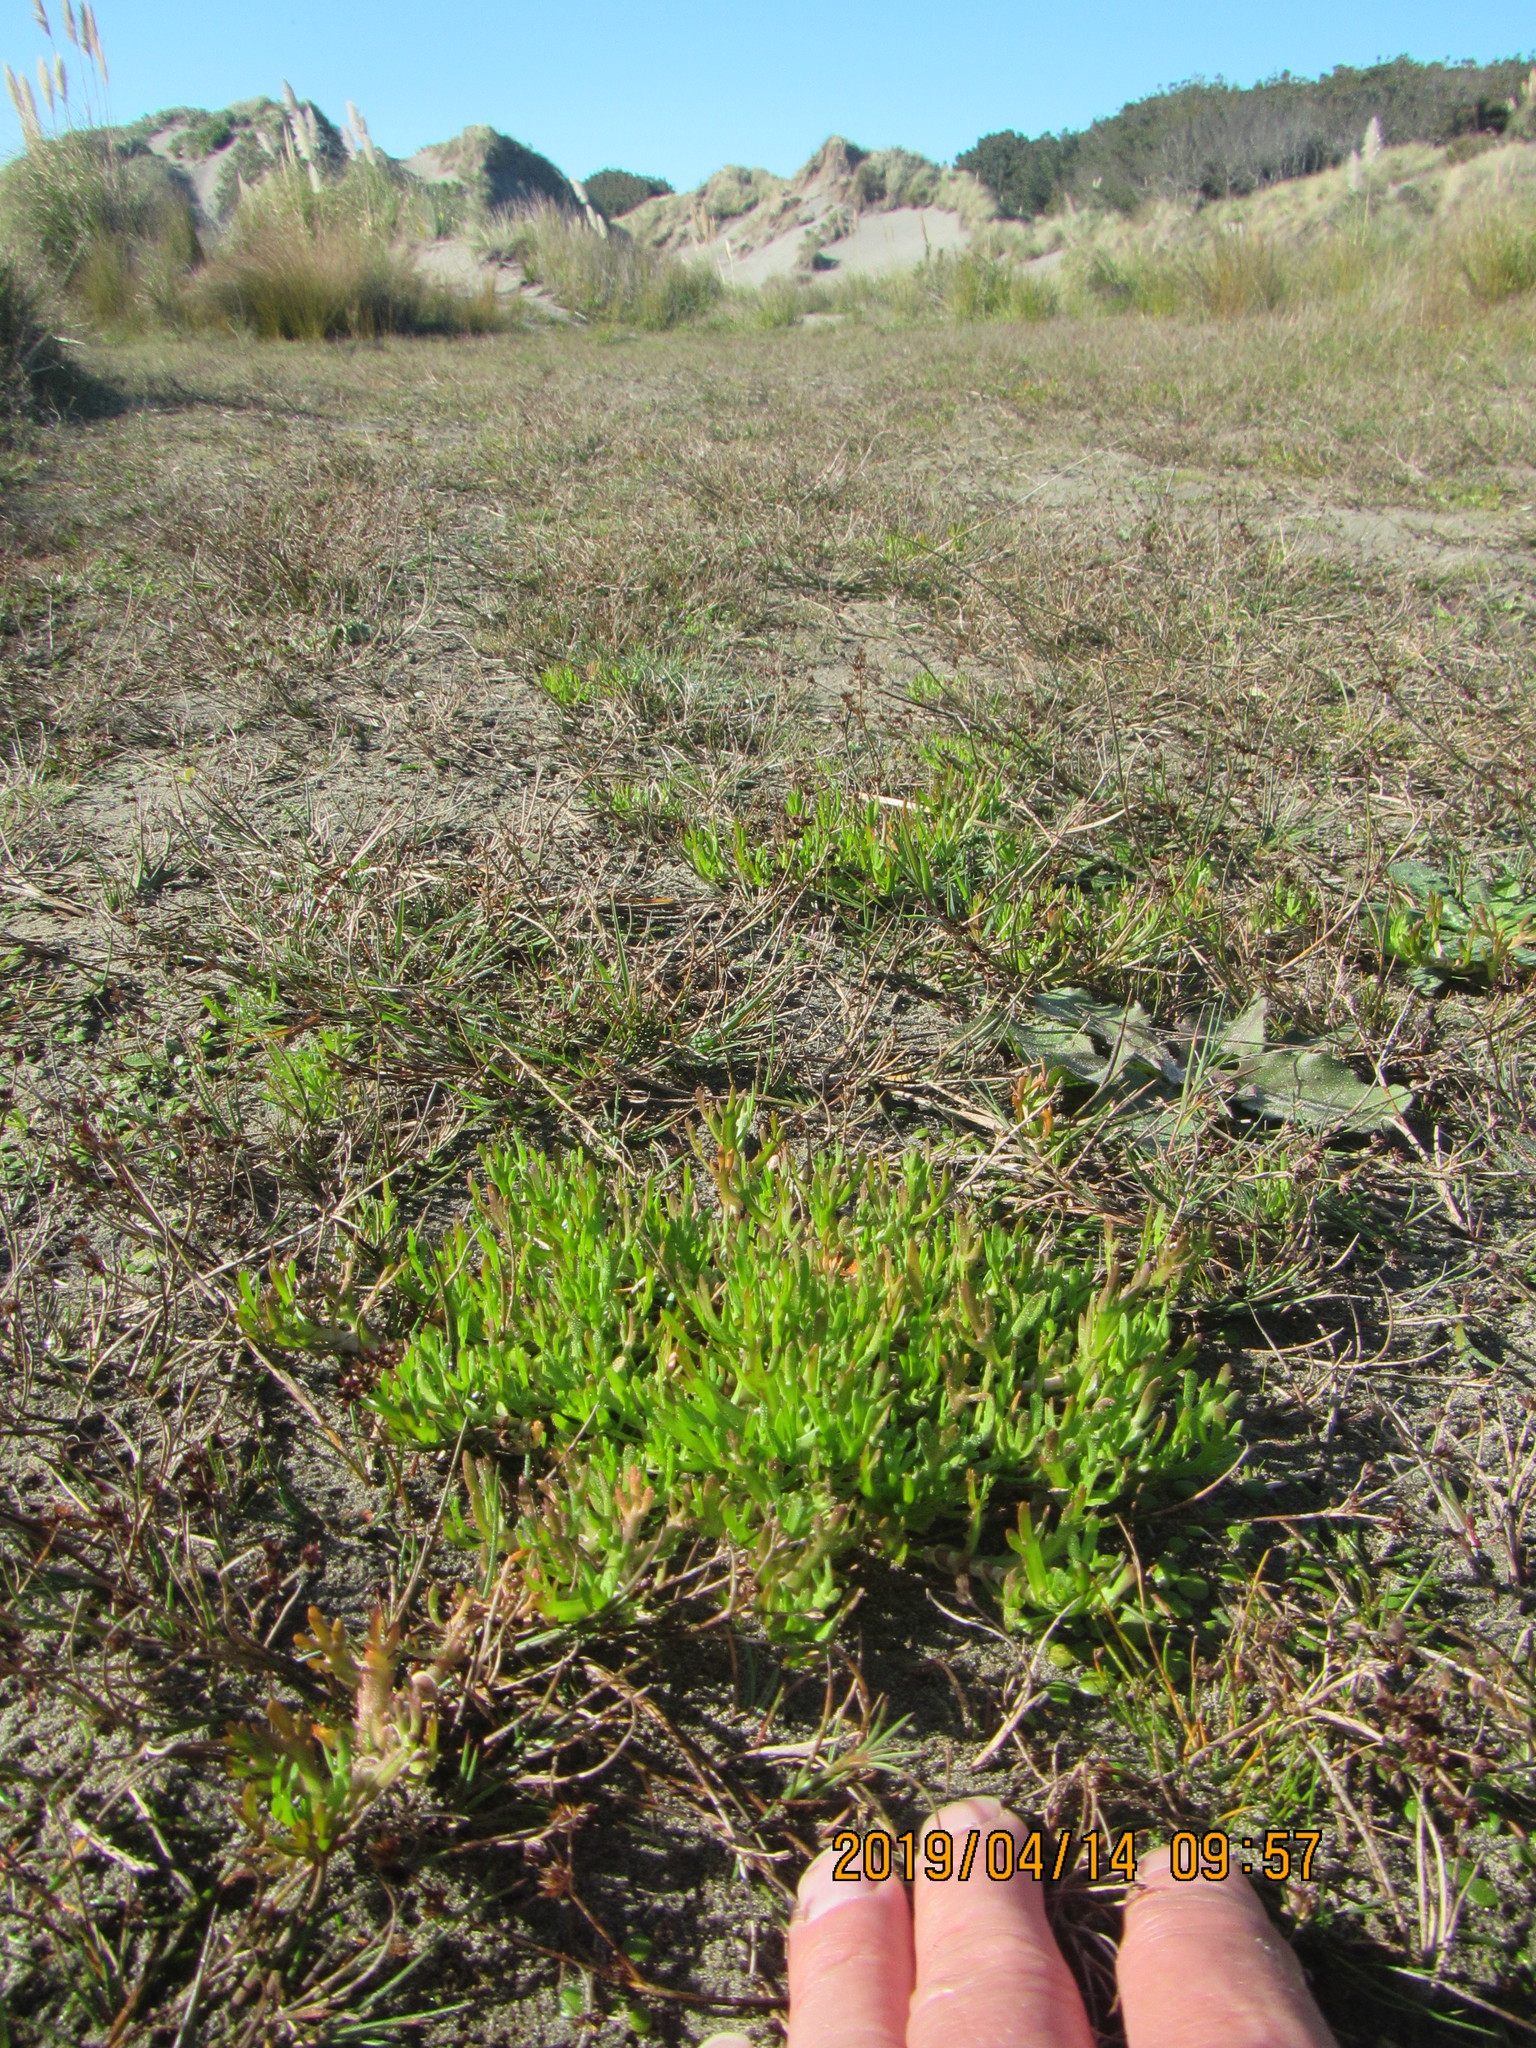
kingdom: Plantae
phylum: Tracheophyta
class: Magnoliopsida
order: Asterales
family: Asteraceae
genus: Cotula
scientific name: Cotula coronopifolia
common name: Buttonweed
